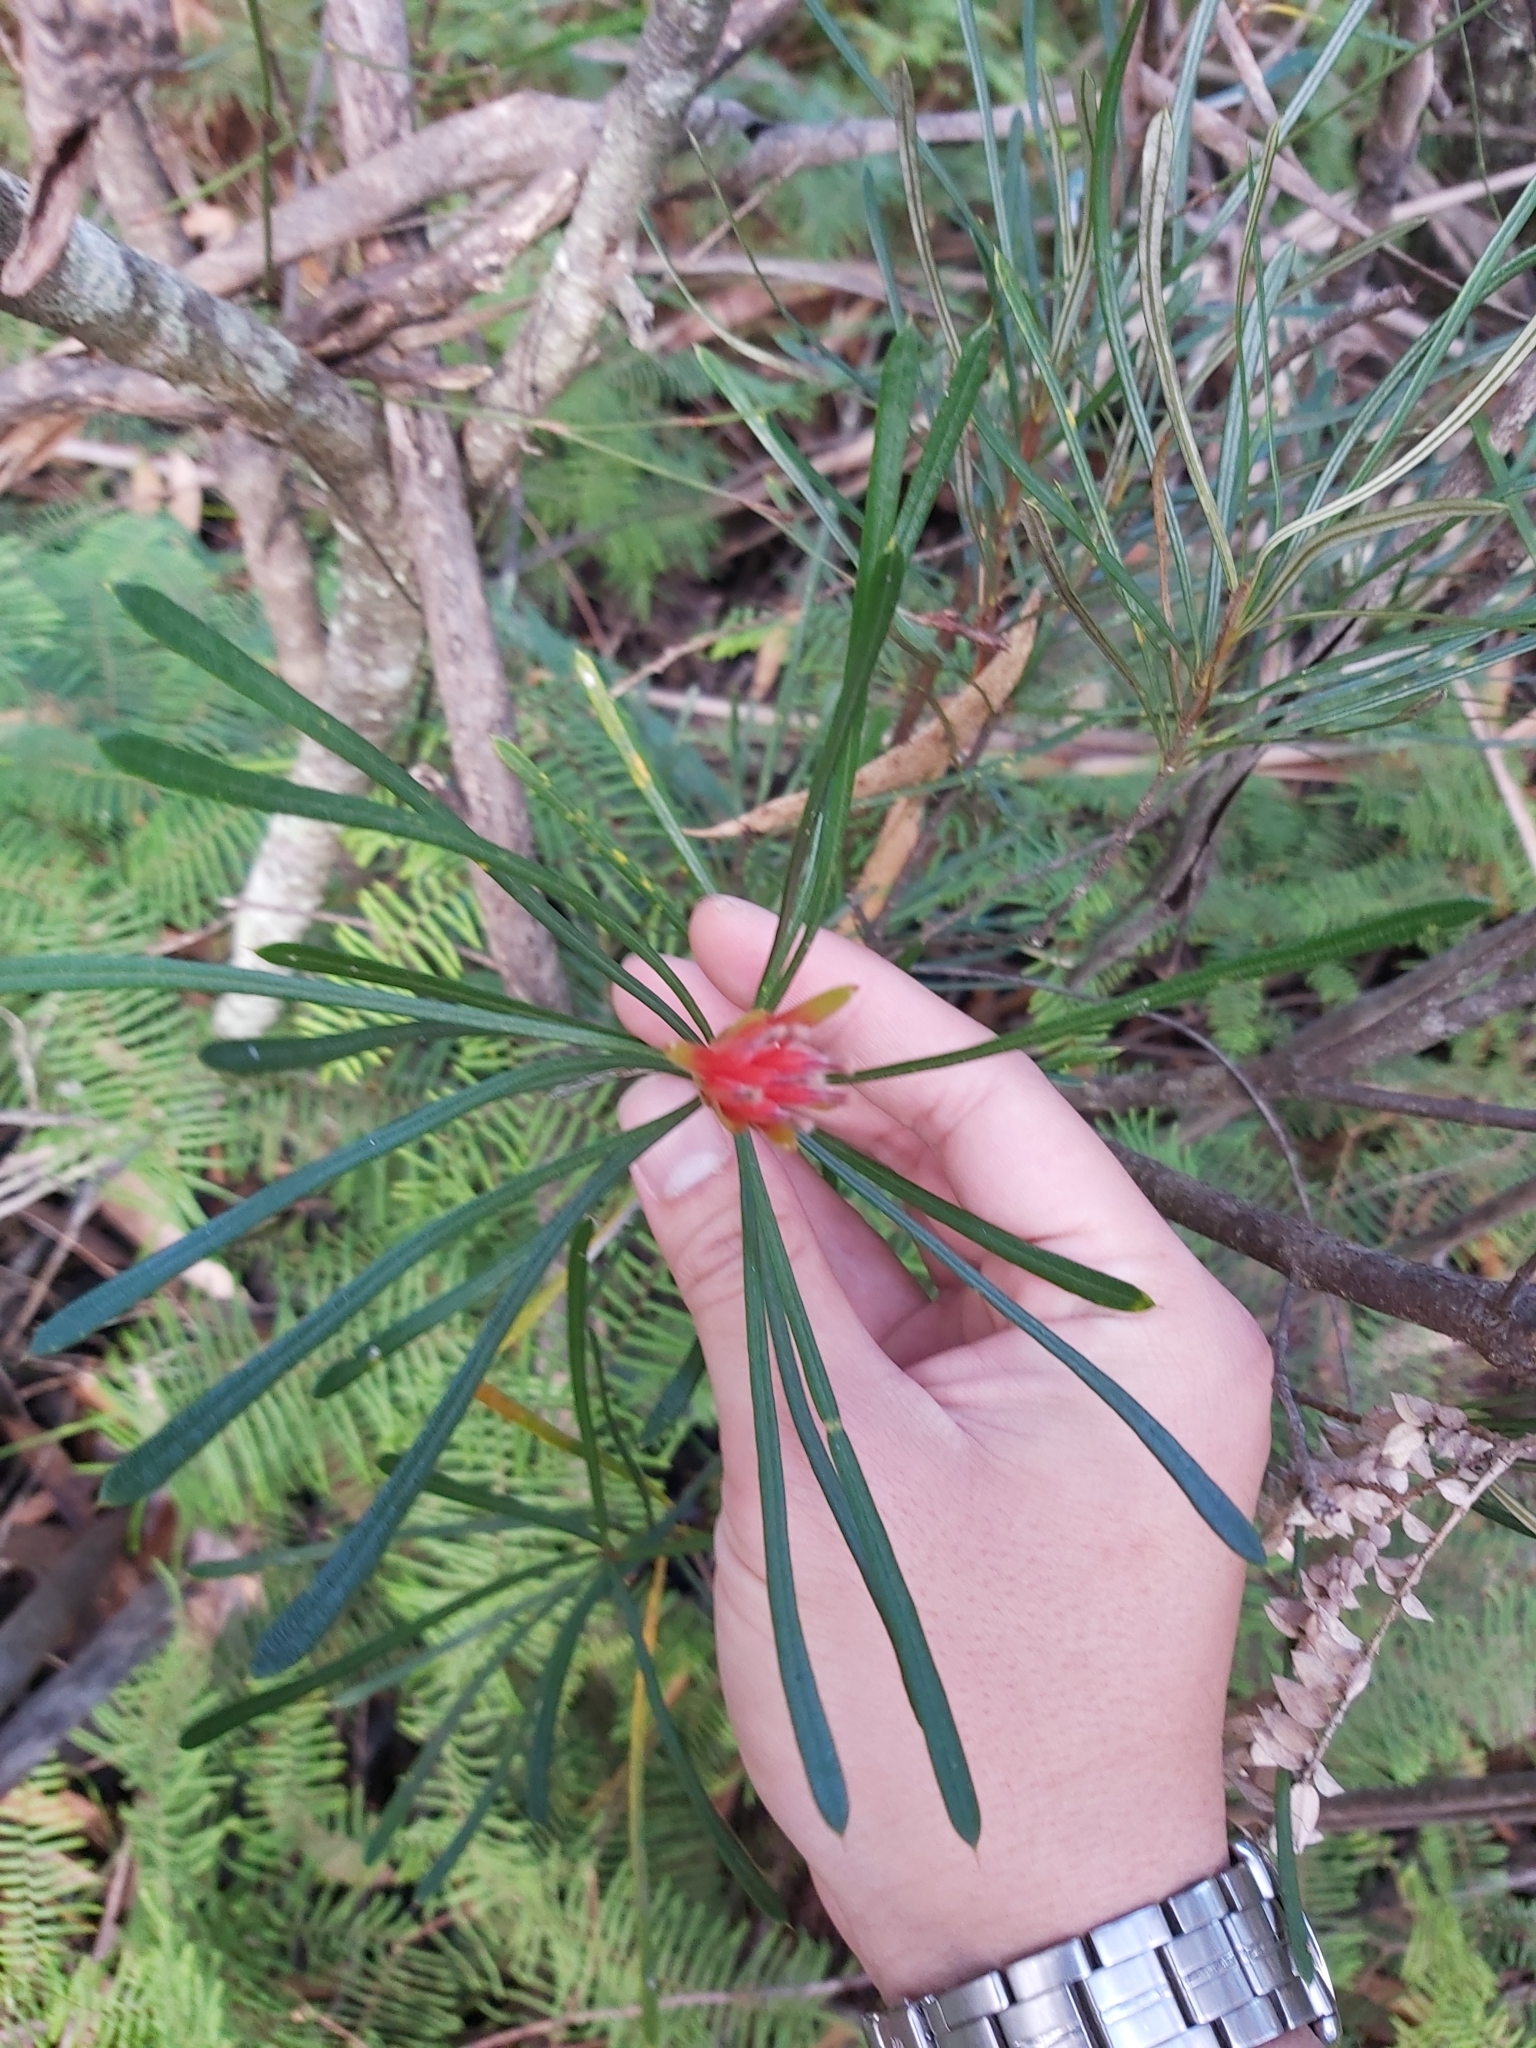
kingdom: Plantae
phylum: Tracheophyta
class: Magnoliopsida
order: Proteales
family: Proteaceae
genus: Lambertia
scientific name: Lambertia formosa
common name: Mountain-devil
